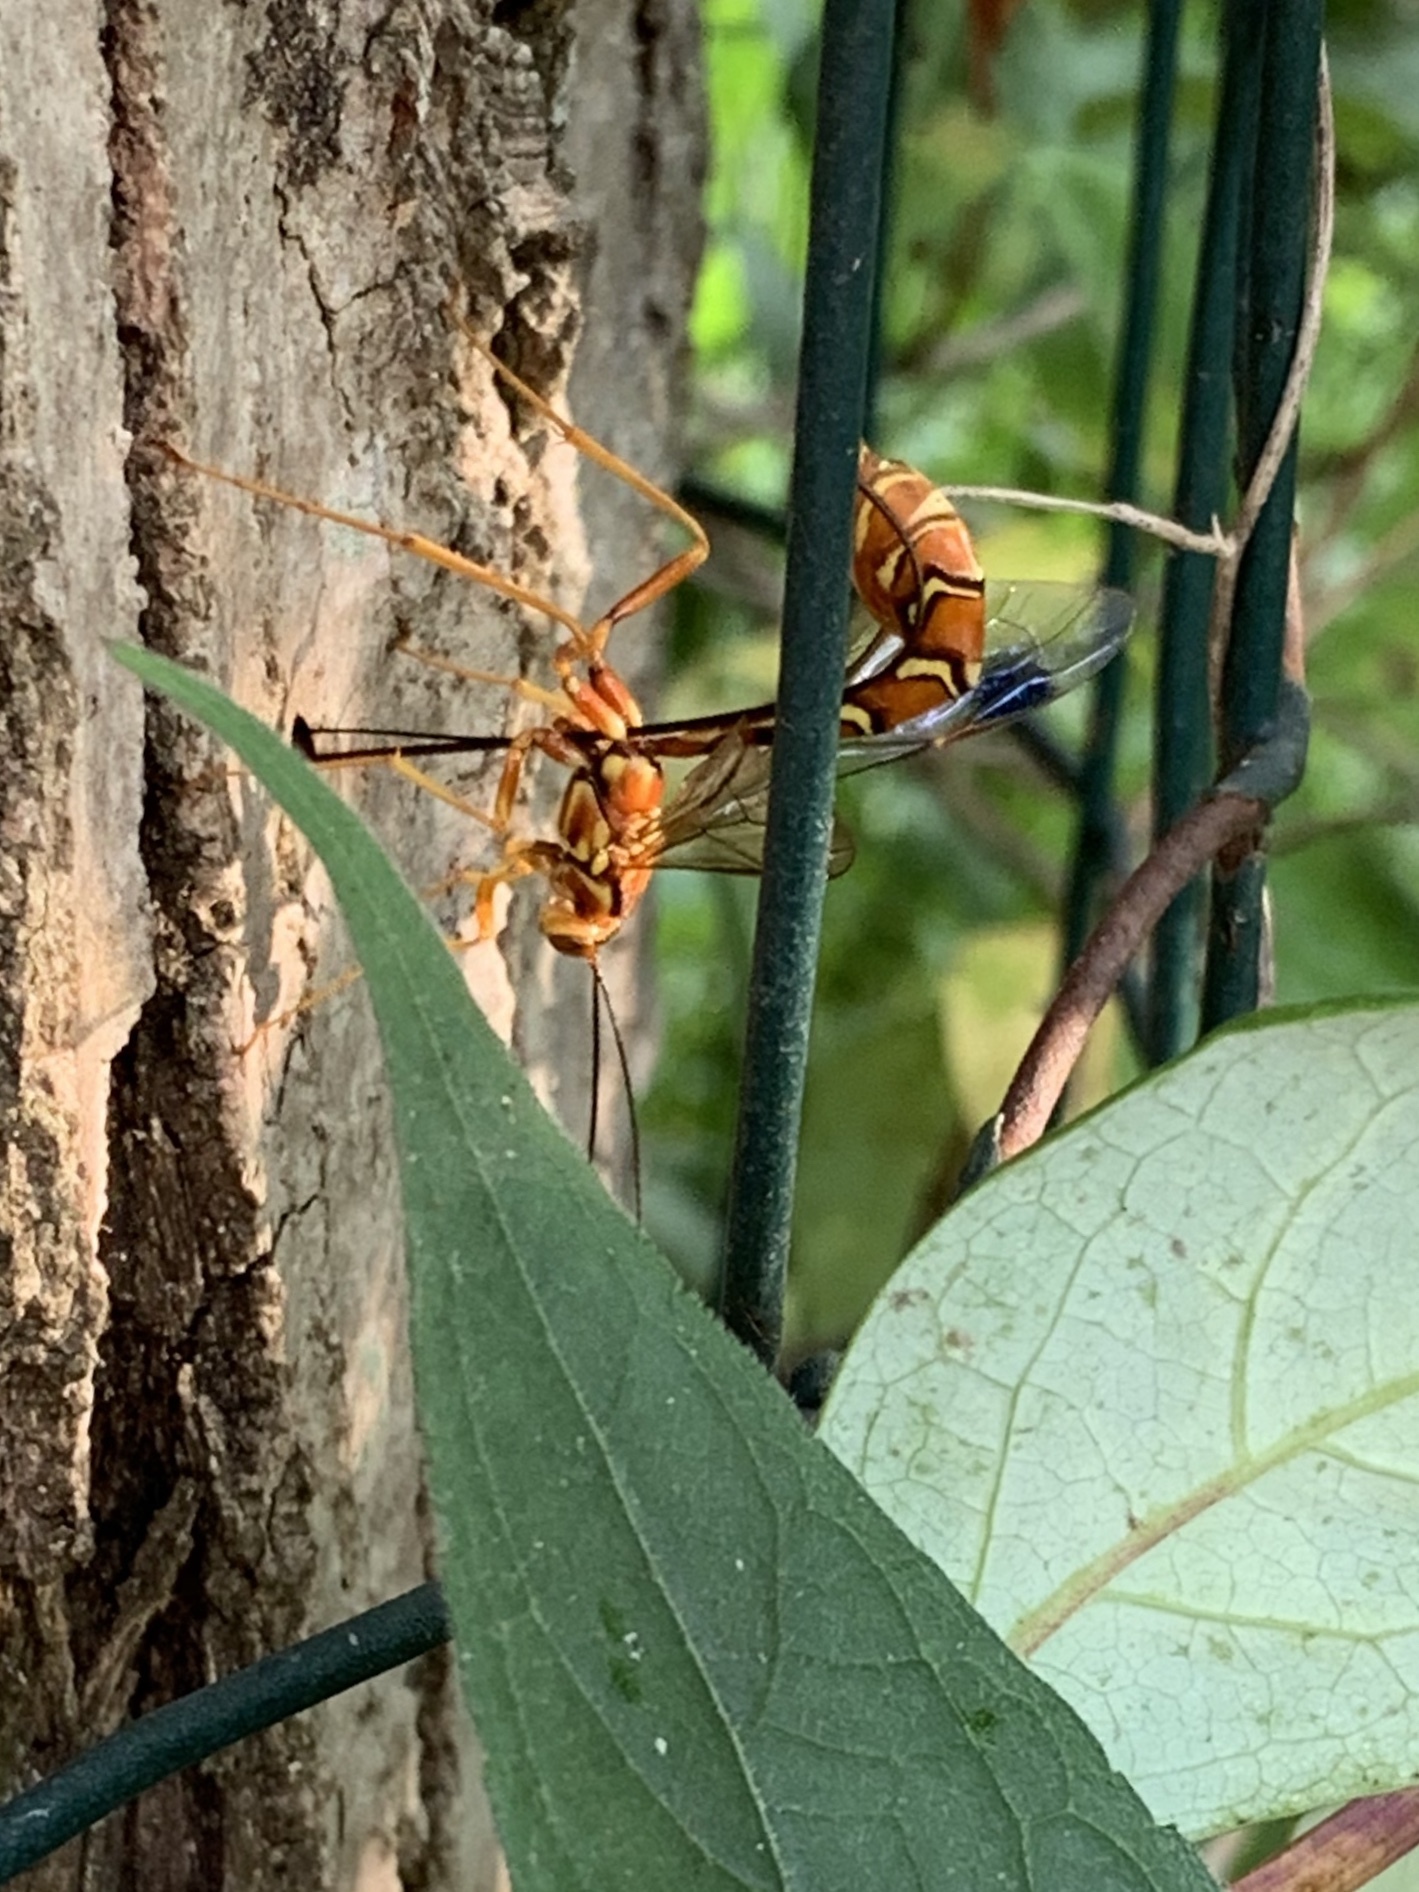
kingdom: Animalia
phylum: Arthropoda
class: Insecta
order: Hymenoptera
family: Ichneumonidae
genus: Megarhyssa
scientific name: Megarhyssa greenei
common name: Greene's giant ichneumonid wasp
